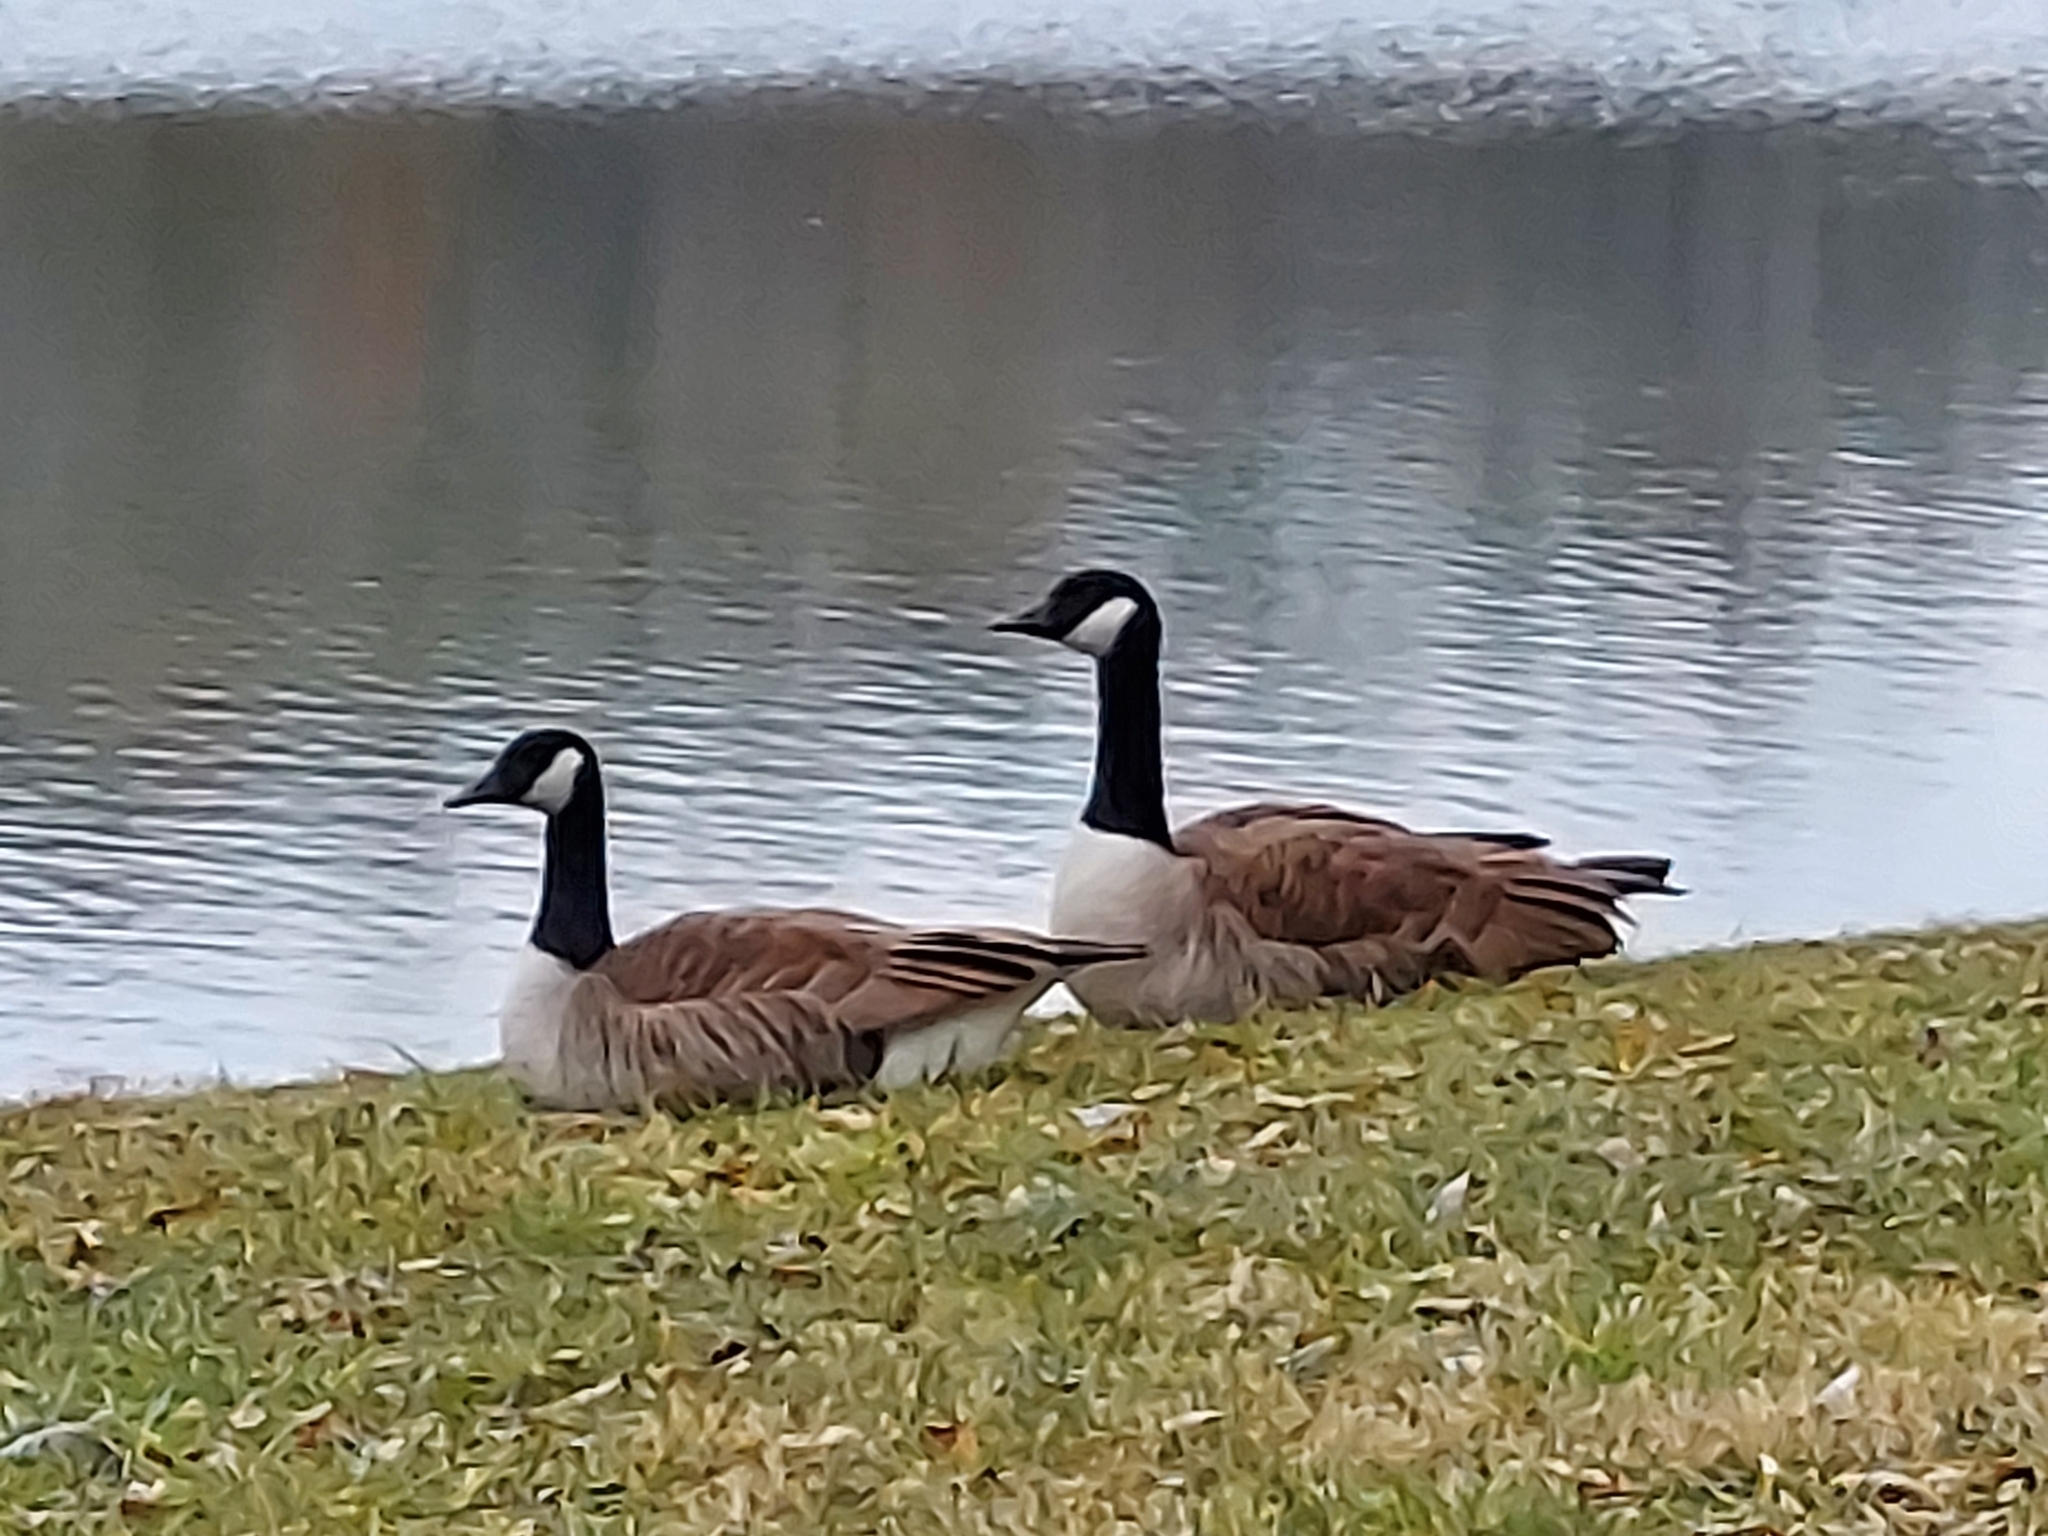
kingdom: Animalia
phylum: Chordata
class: Aves
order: Anseriformes
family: Anatidae
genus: Branta
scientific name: Branta canadensis
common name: Canada goose
